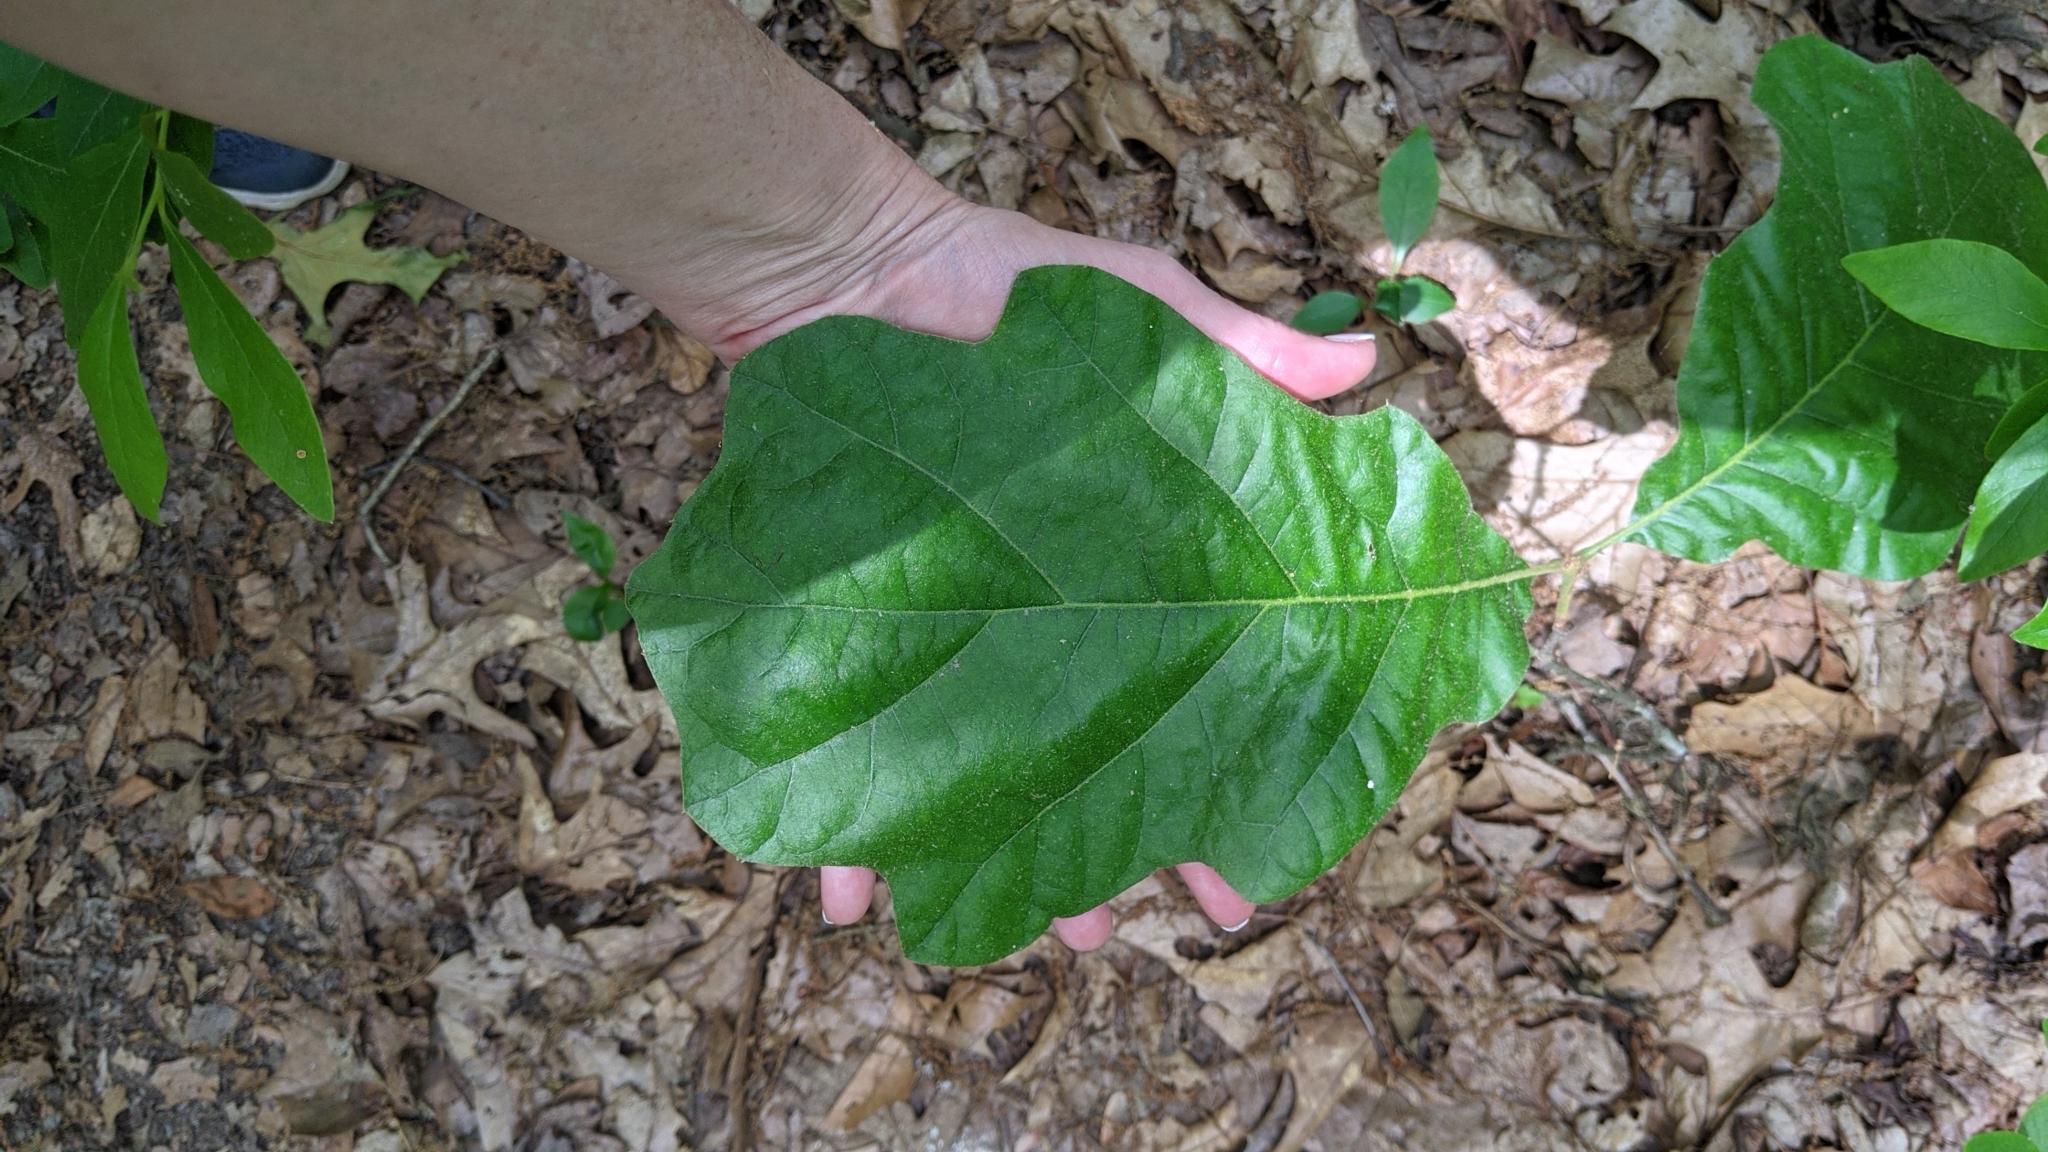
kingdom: Plantae
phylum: Tracheophyta
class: Magnoliopsida
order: Fagales
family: Fagaceae
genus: Quercus
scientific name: Quercus velutina
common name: Black oak
